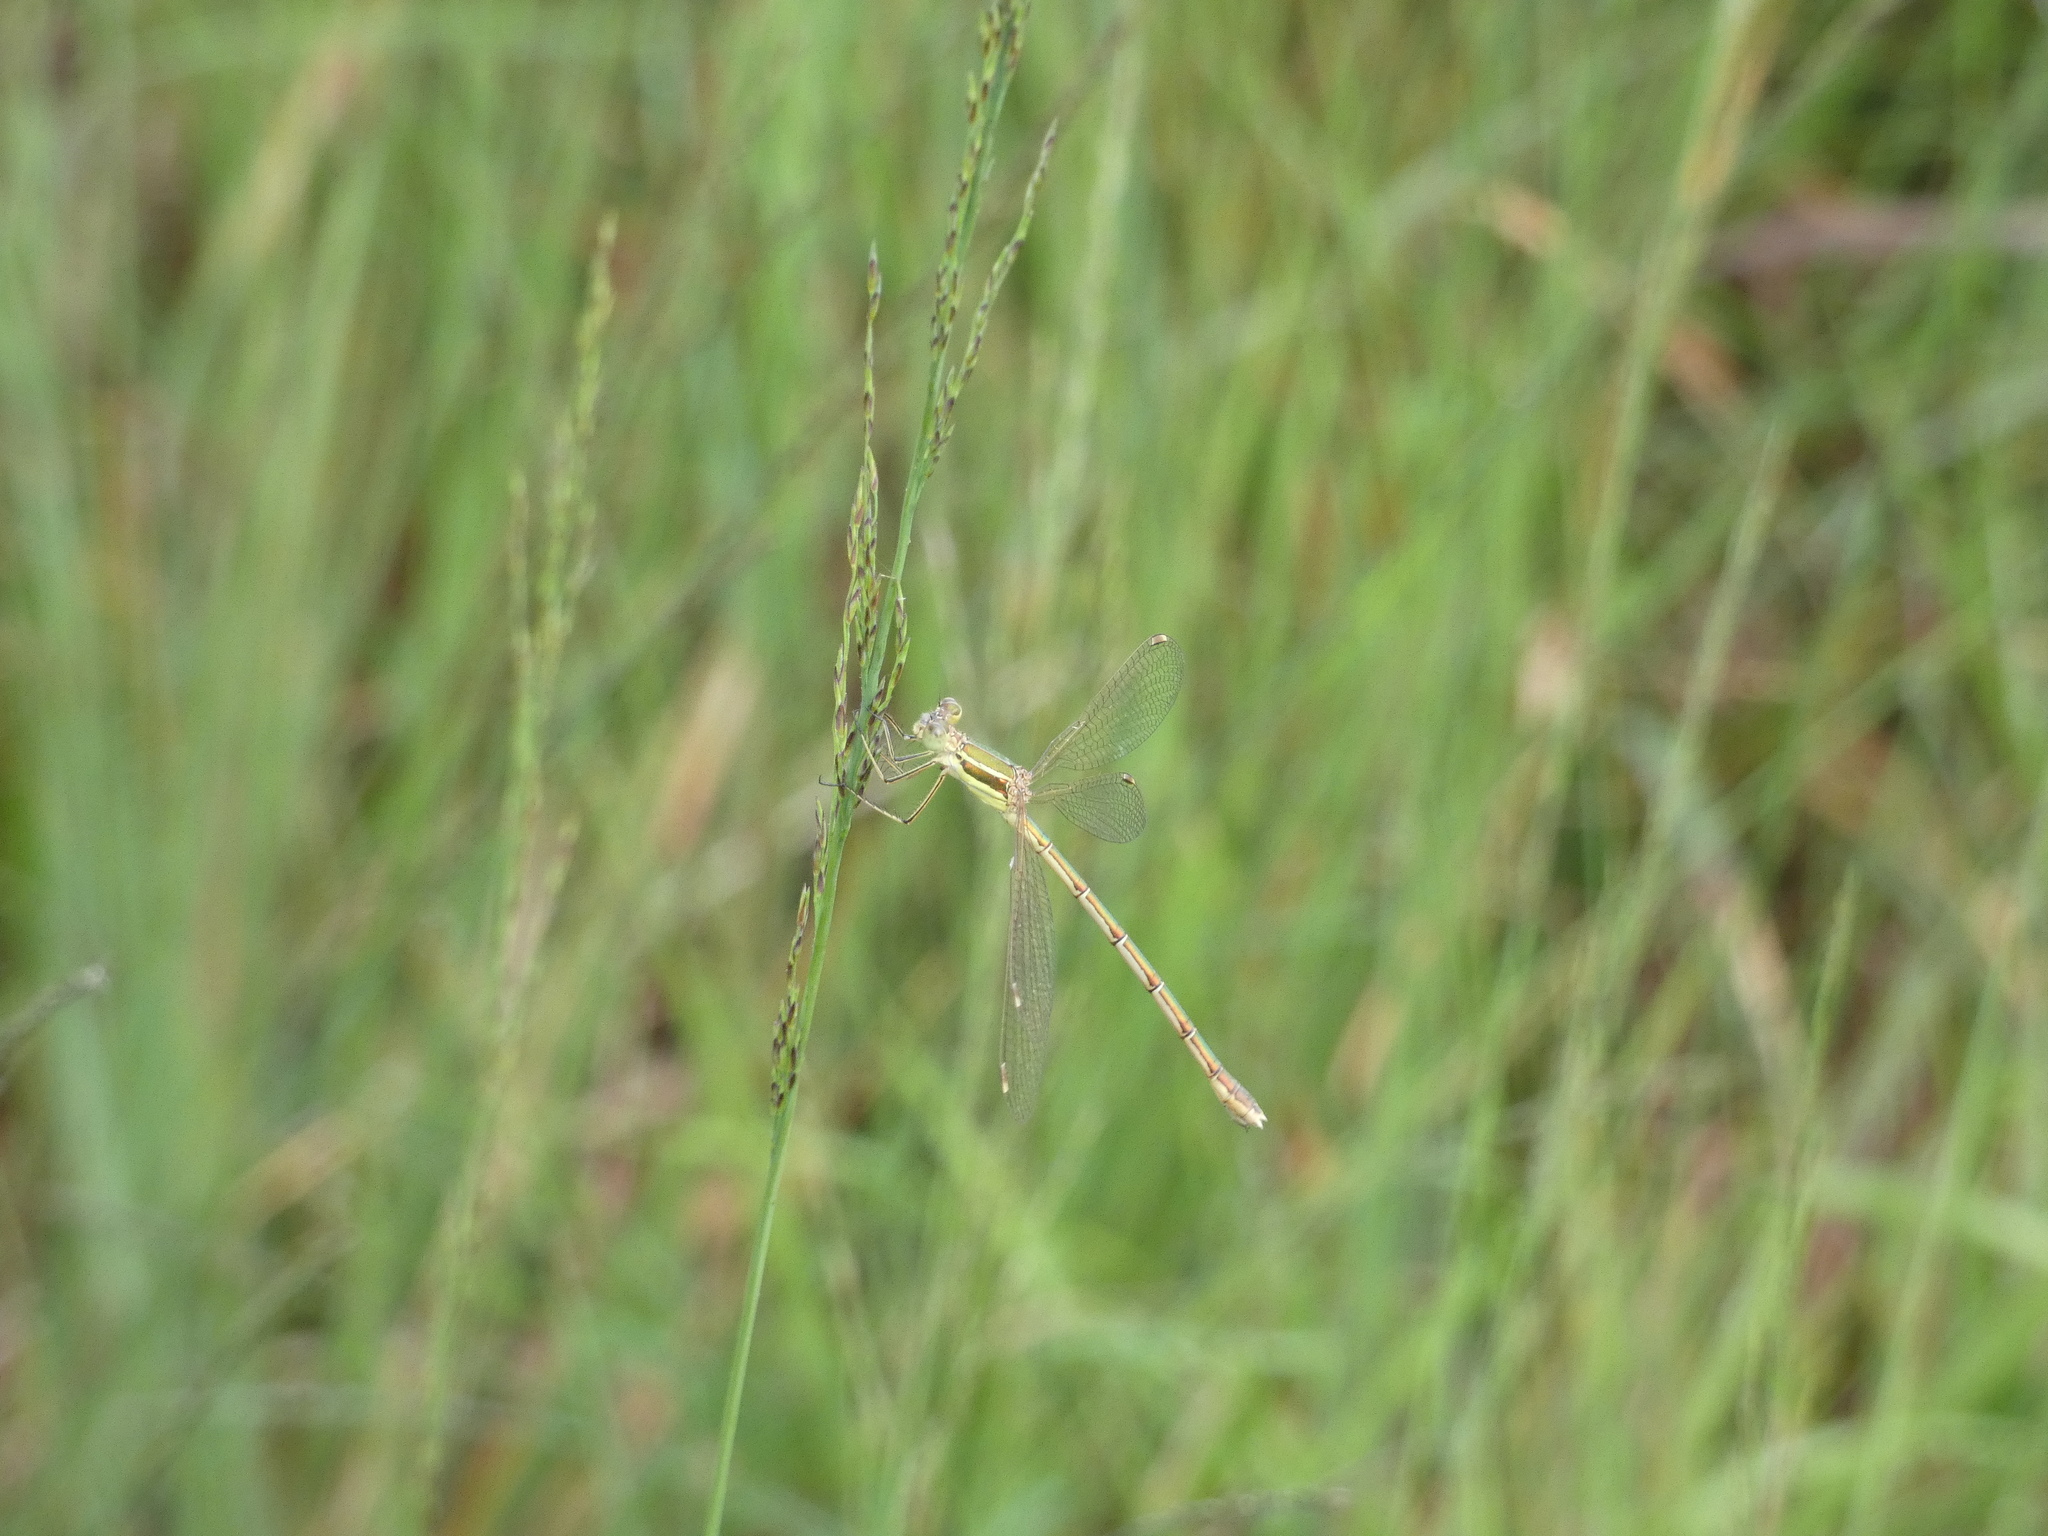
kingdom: Animalia
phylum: Arthropoda
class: Insecta
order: Odonata
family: Lestidae
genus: Lestes
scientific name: Lestes barbarus
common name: Migrant spreadwing
